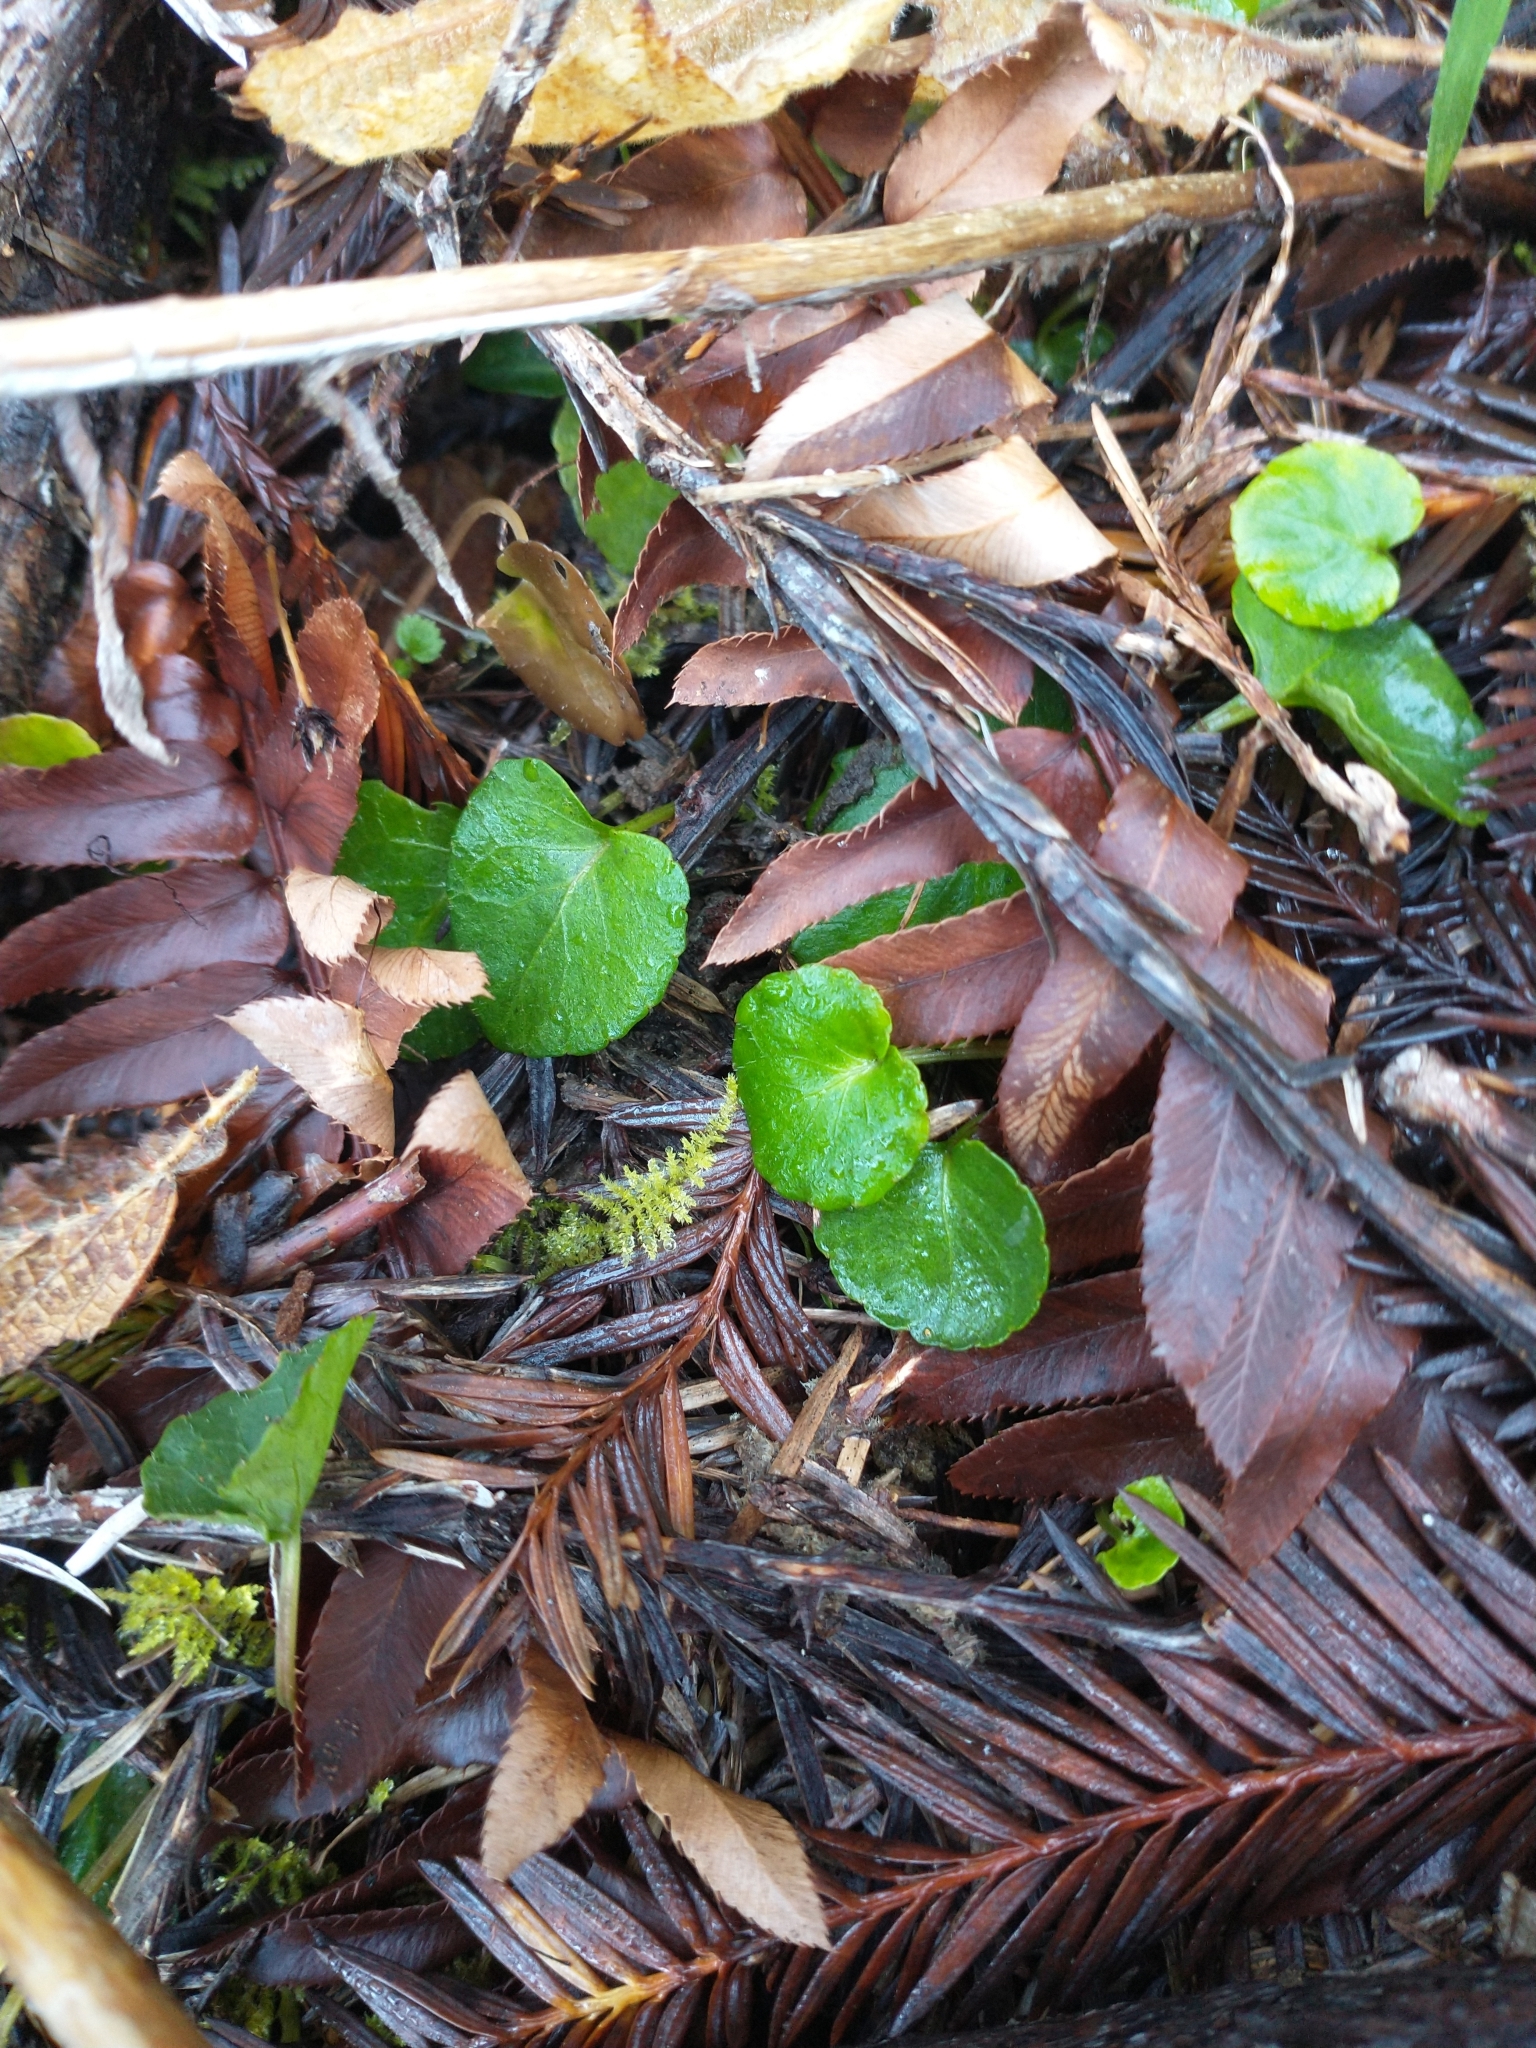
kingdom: Plantae
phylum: Tracheophyta
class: Magnoliopsida
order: Malpighiales
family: Violaceae
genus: Viola
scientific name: Viola sempervirens
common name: Evergreen violet
